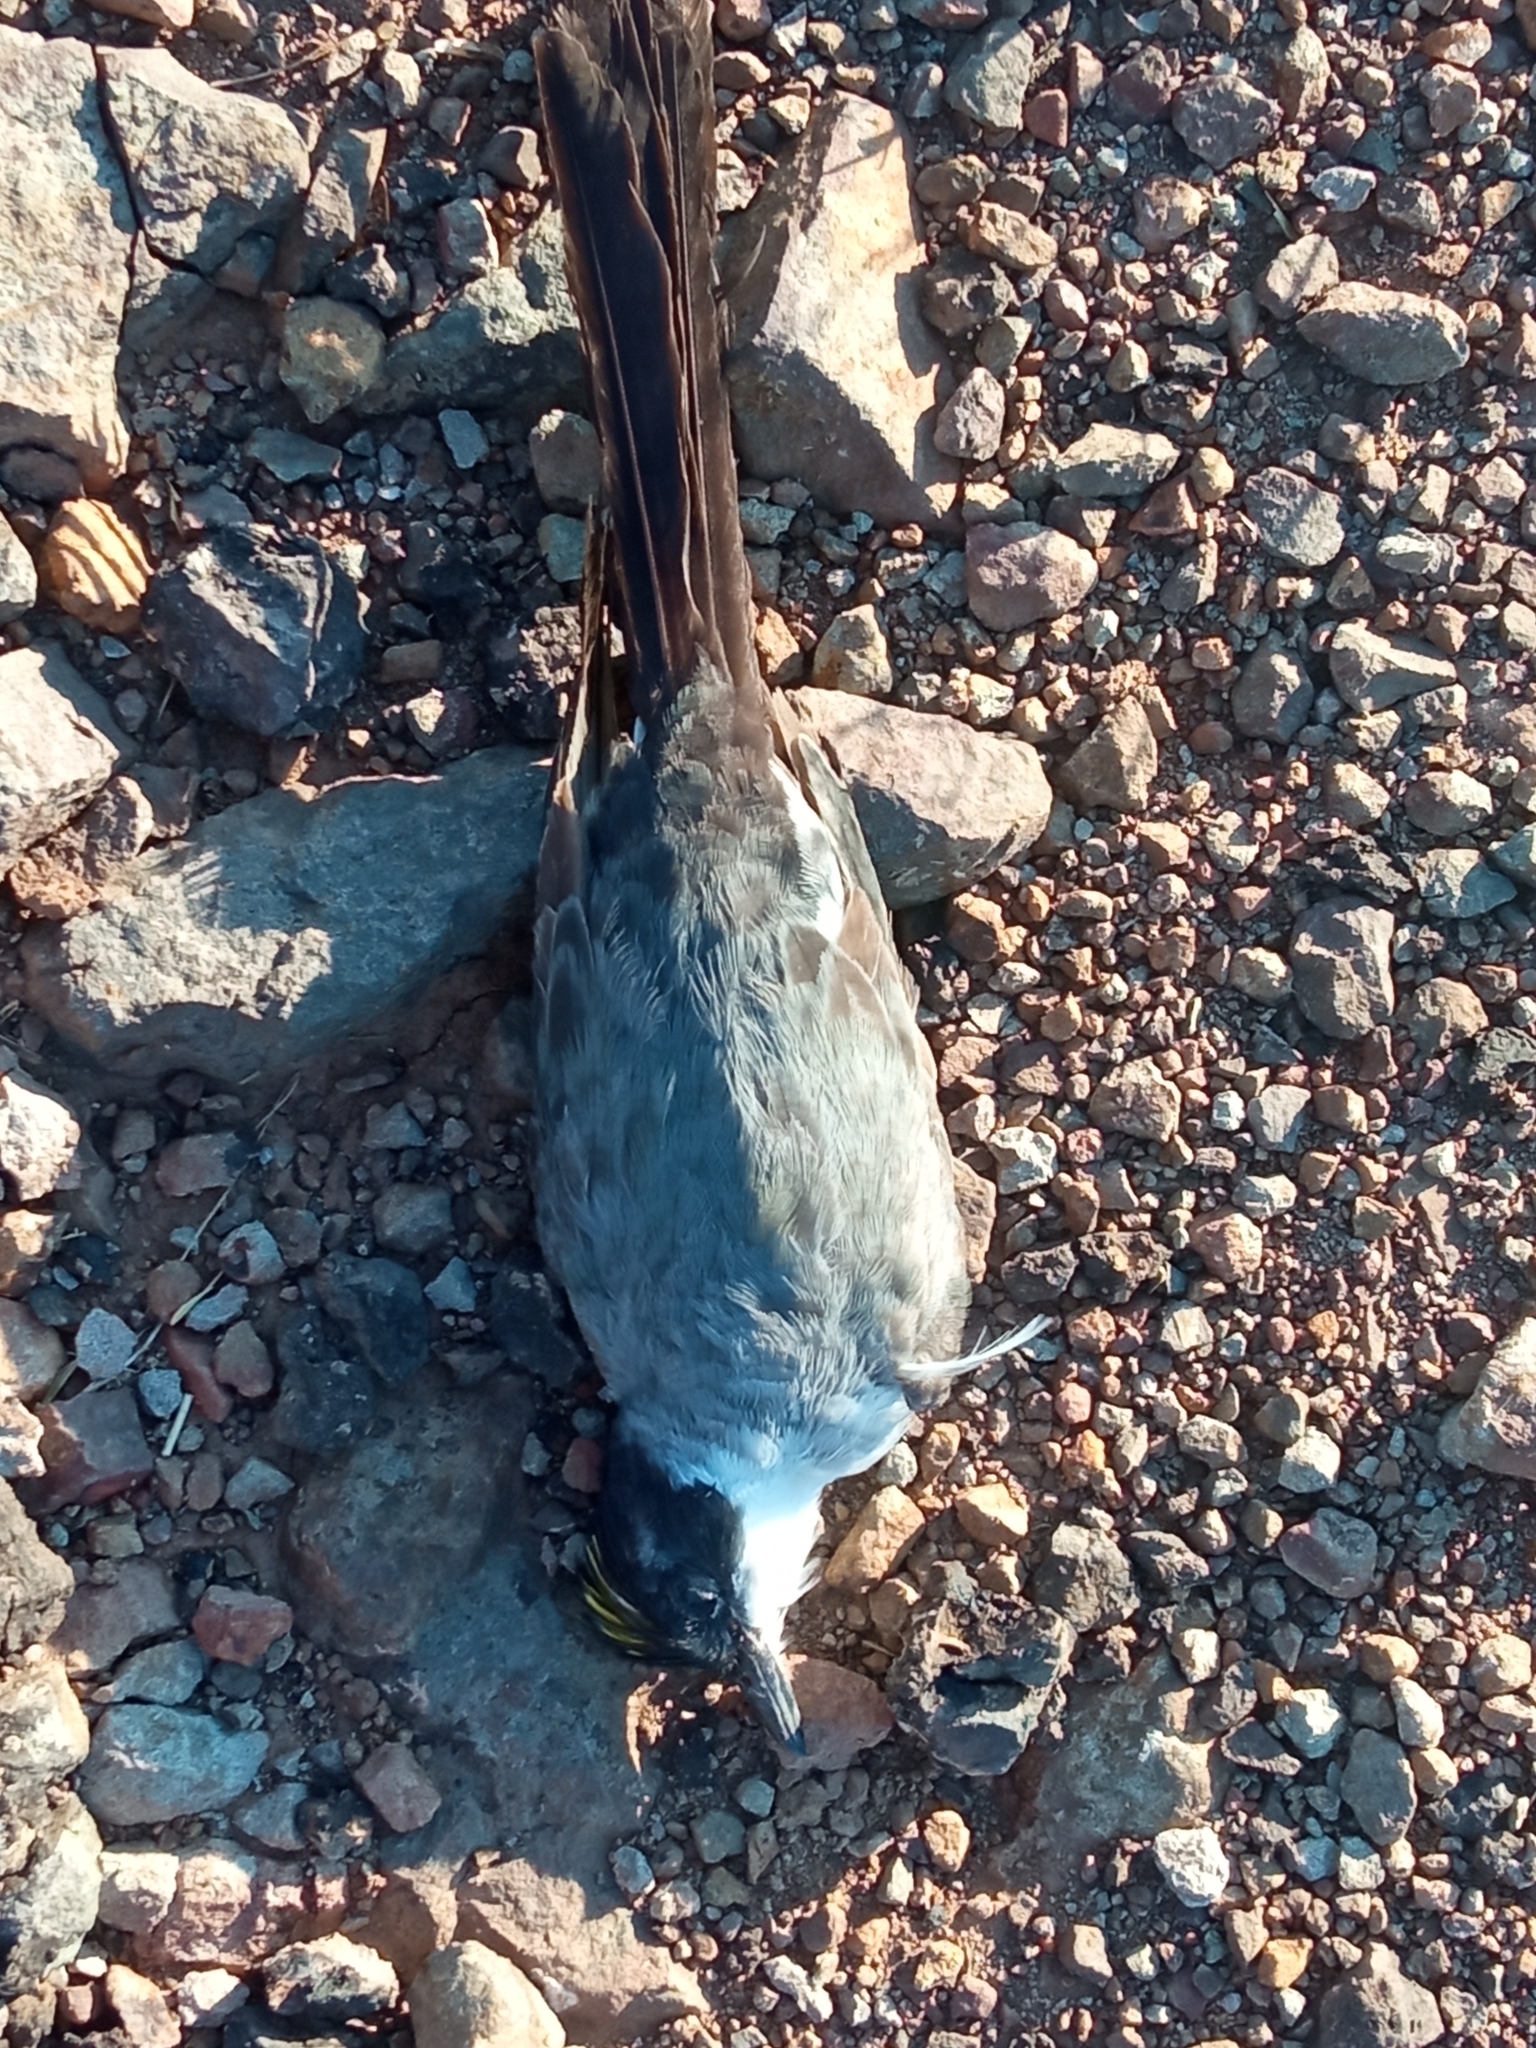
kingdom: Animalia
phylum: Chordata
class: Aves
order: Passeriformes
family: Tyrannidae
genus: Tyrannus
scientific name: Tyrannus savana
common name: Fork-tailed flycatcher
